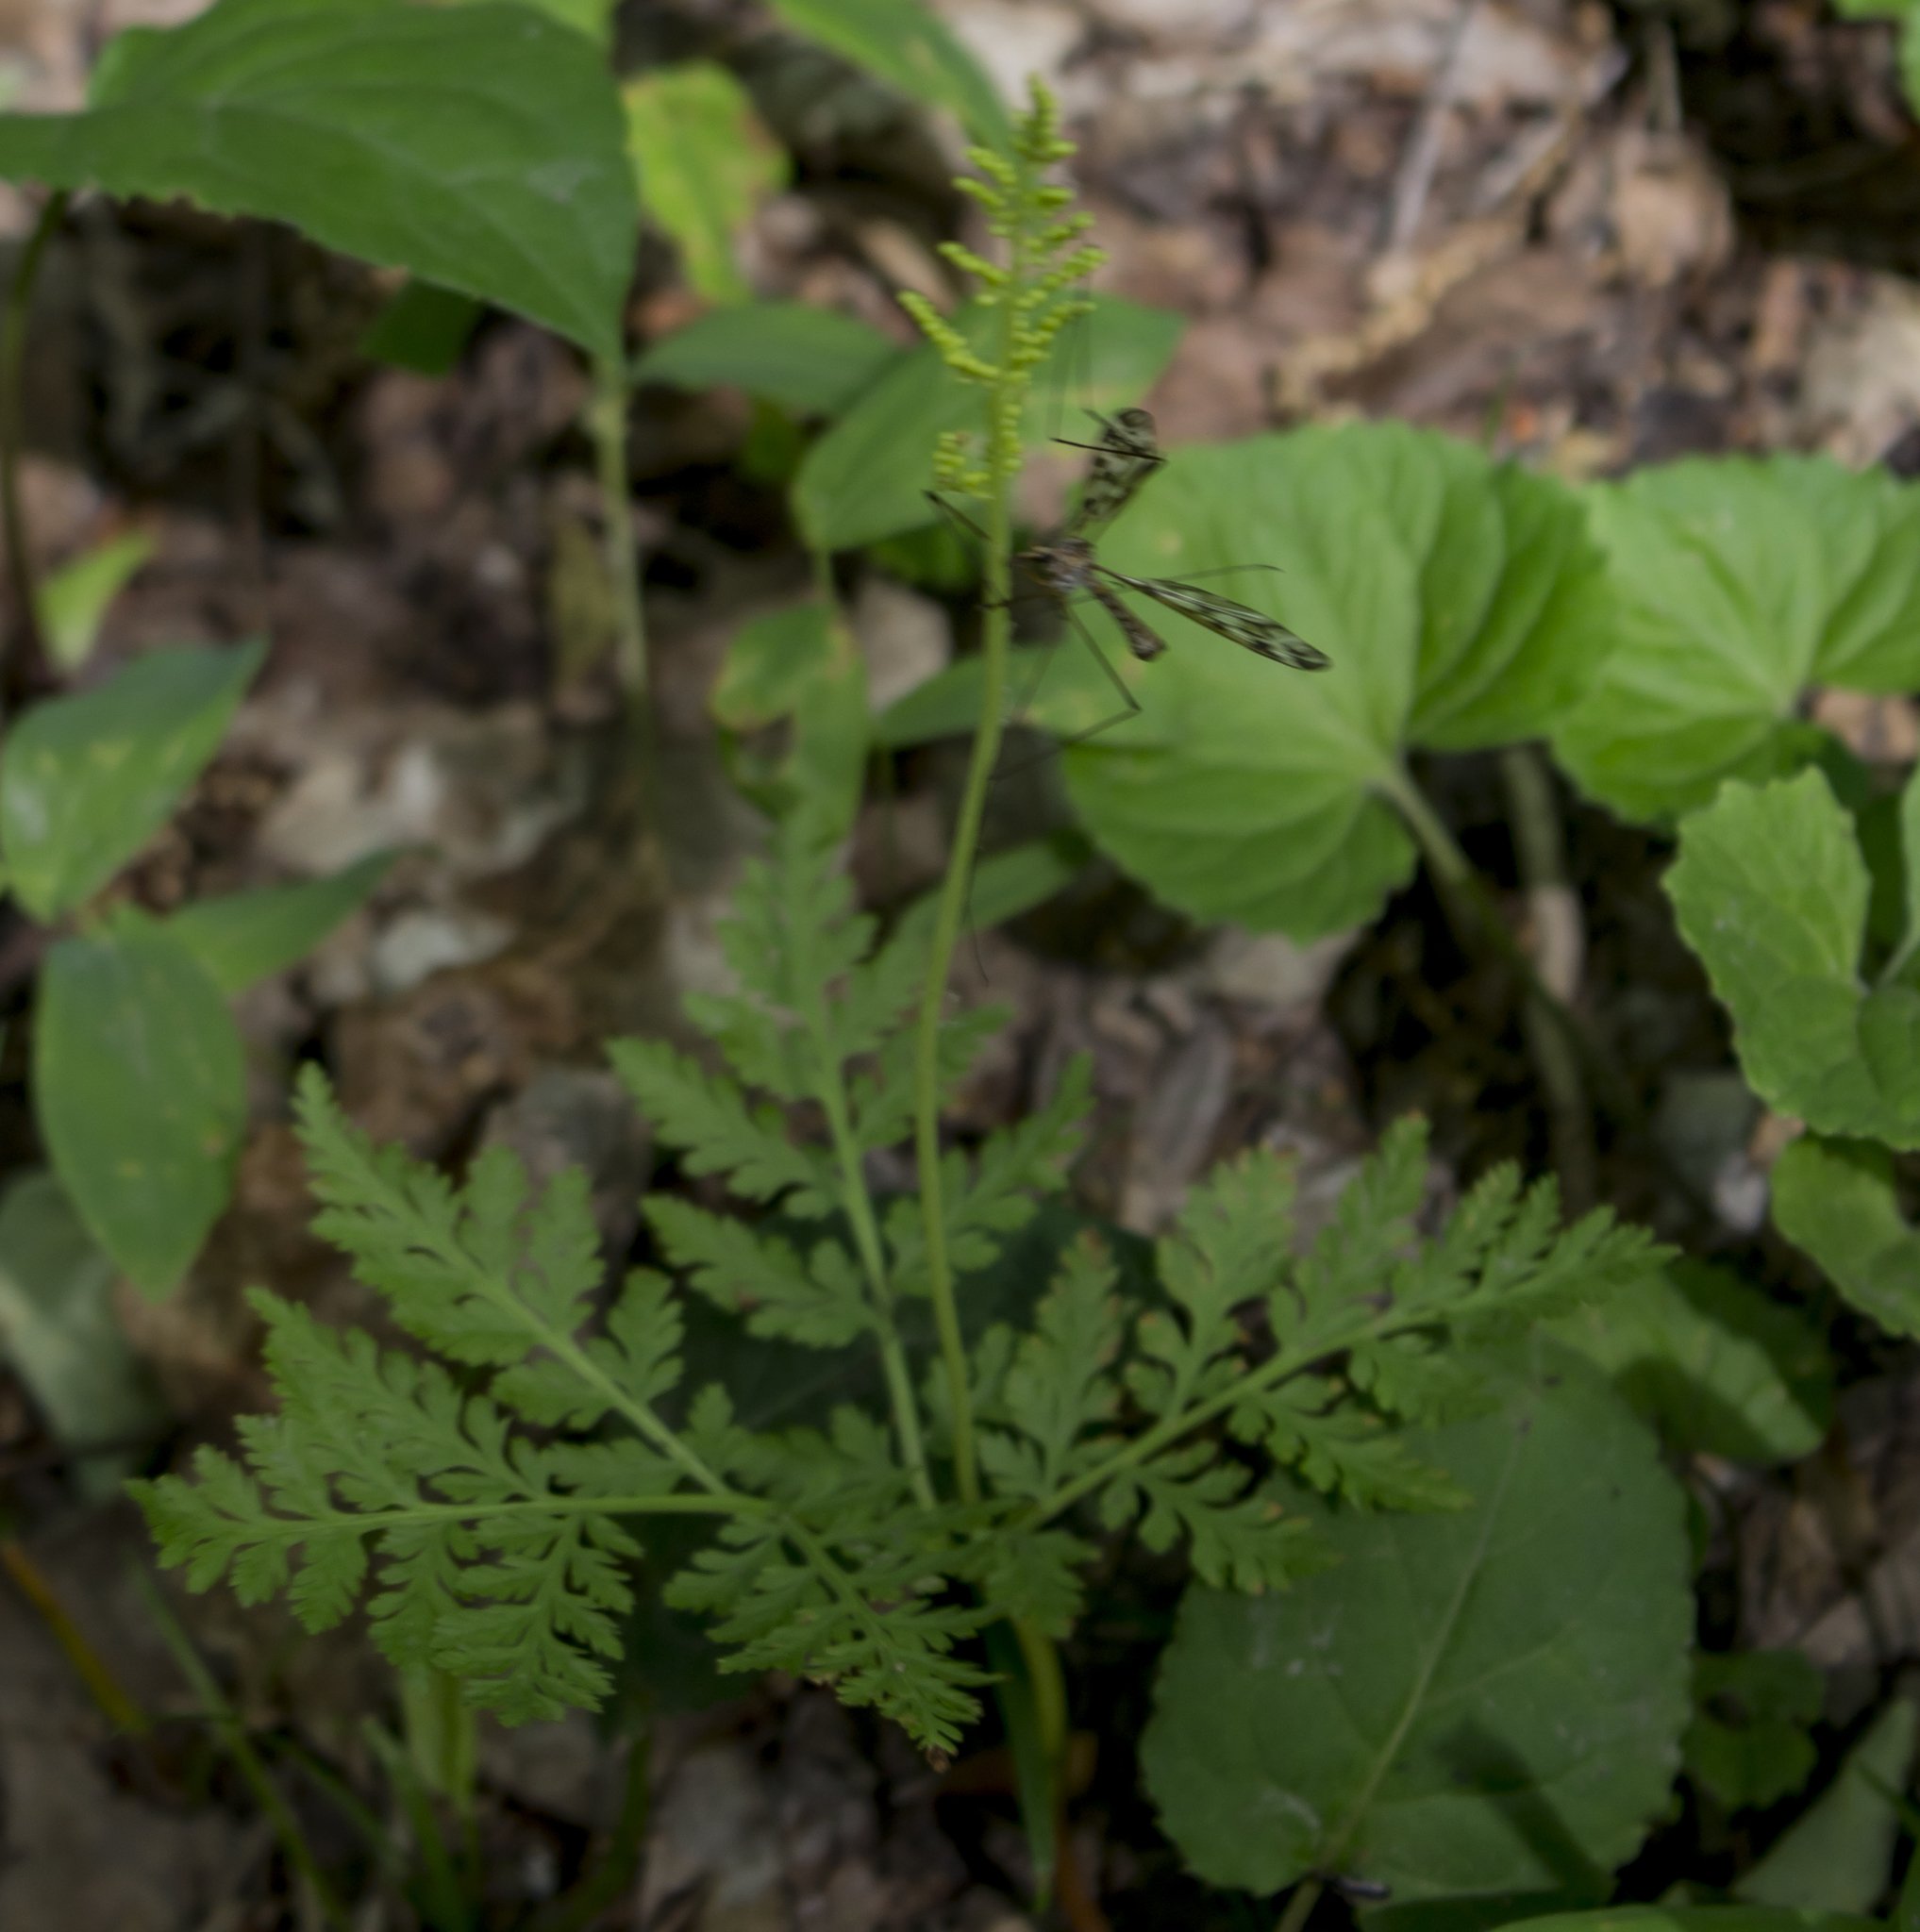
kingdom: Plantae
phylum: Tracheophyta
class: Polypodiopsida
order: Ophioglossales
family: Ophioglossaceae
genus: Botrypus
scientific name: Botrypus virginianus
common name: Common grapefern
